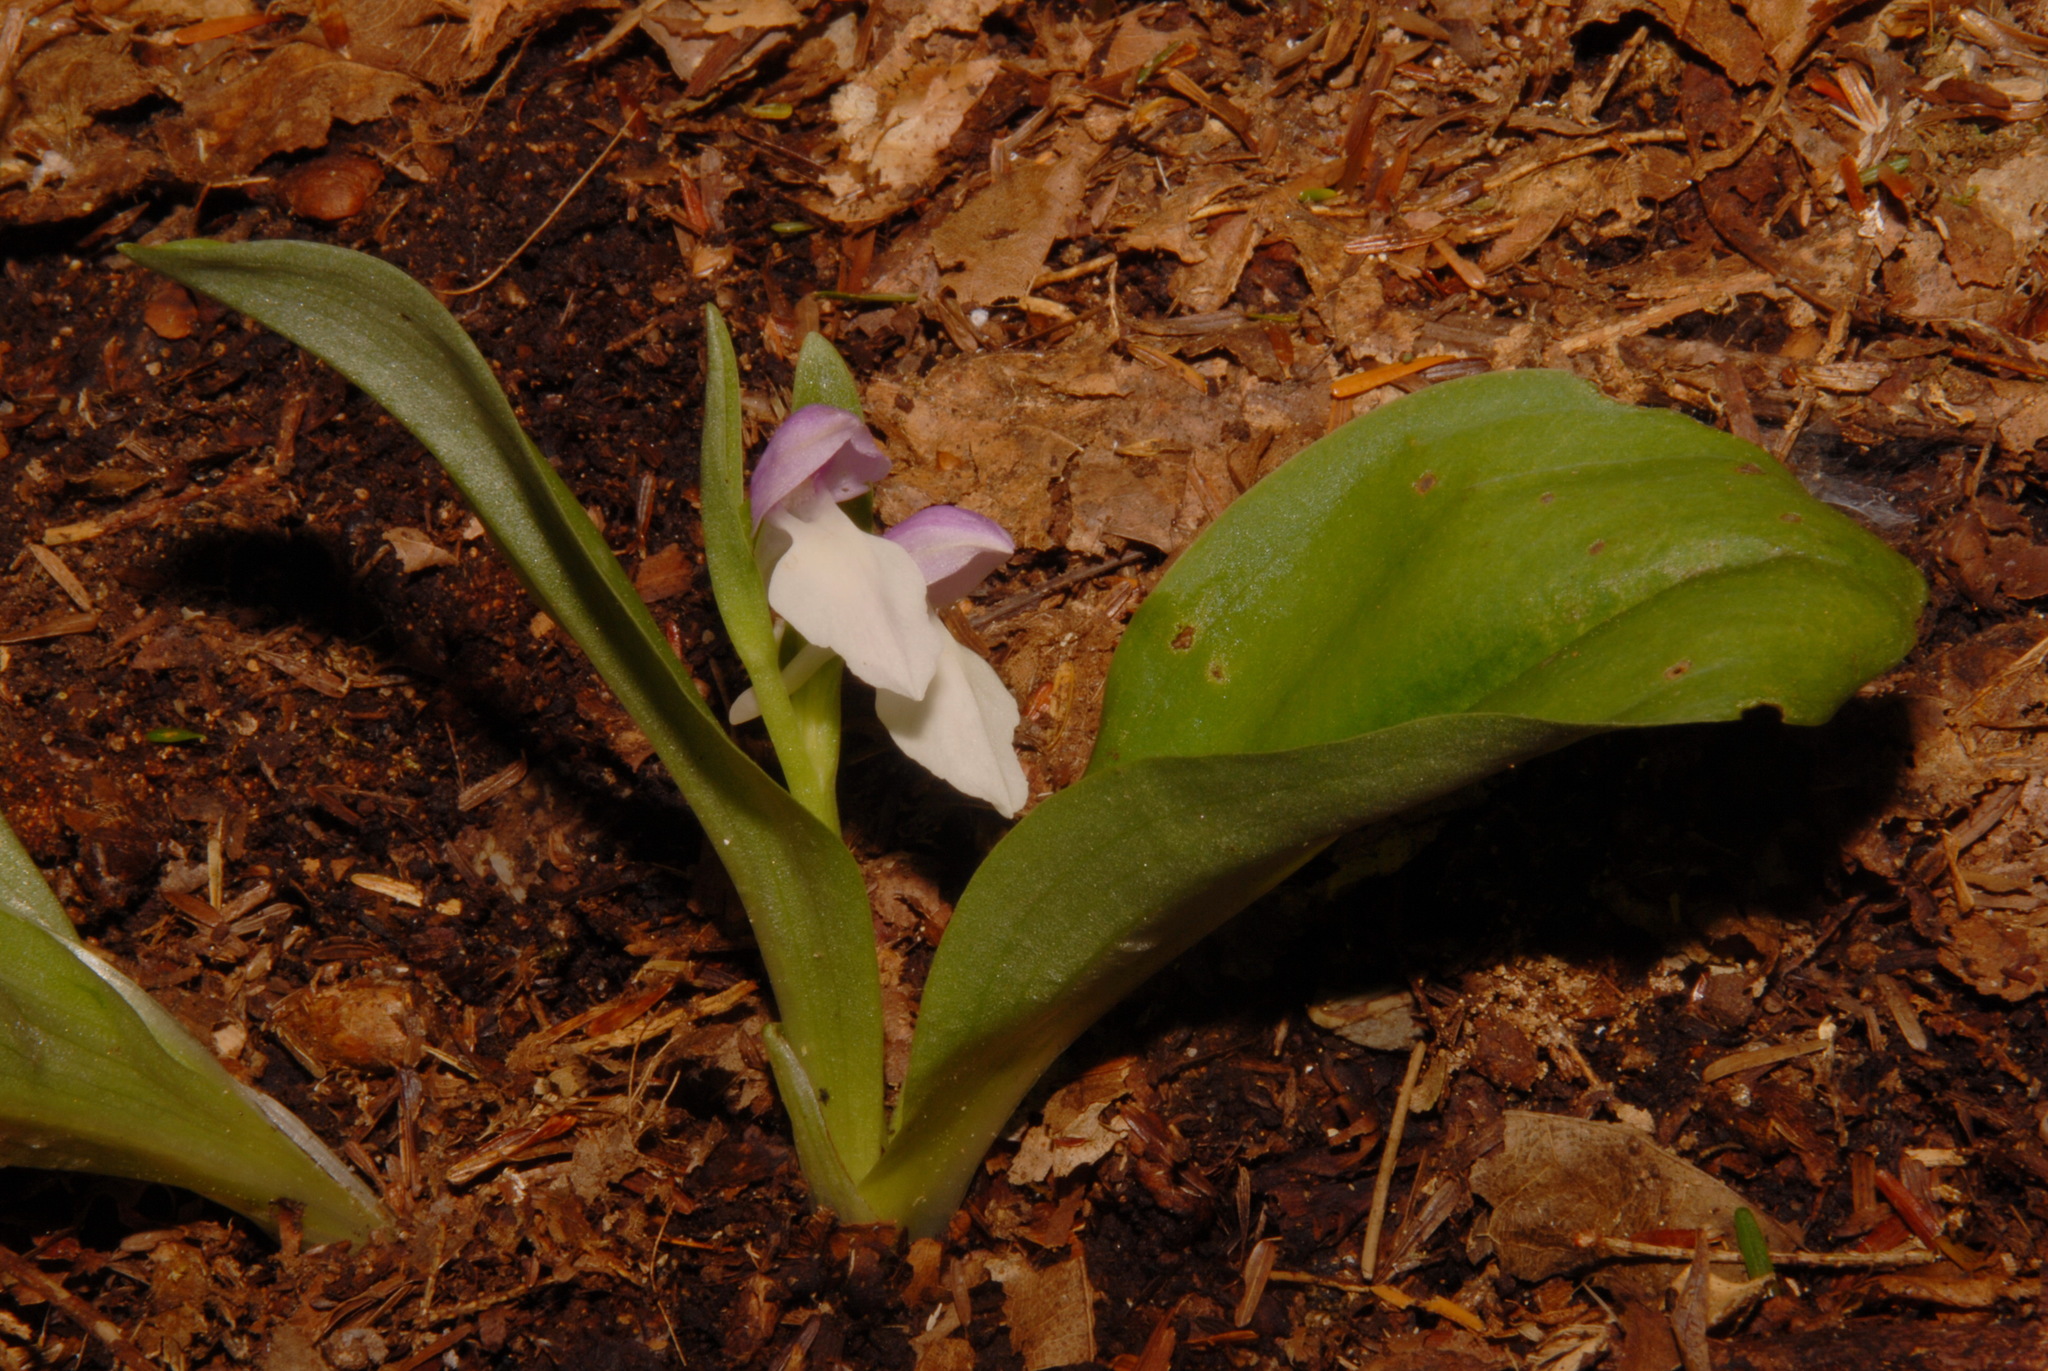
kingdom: Plantae
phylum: Tracheophyta
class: Liliopsida
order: Asparagales
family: Orchidaceae
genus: Galearis
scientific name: Galearis spectabilis
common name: Purple-hooded orchis
